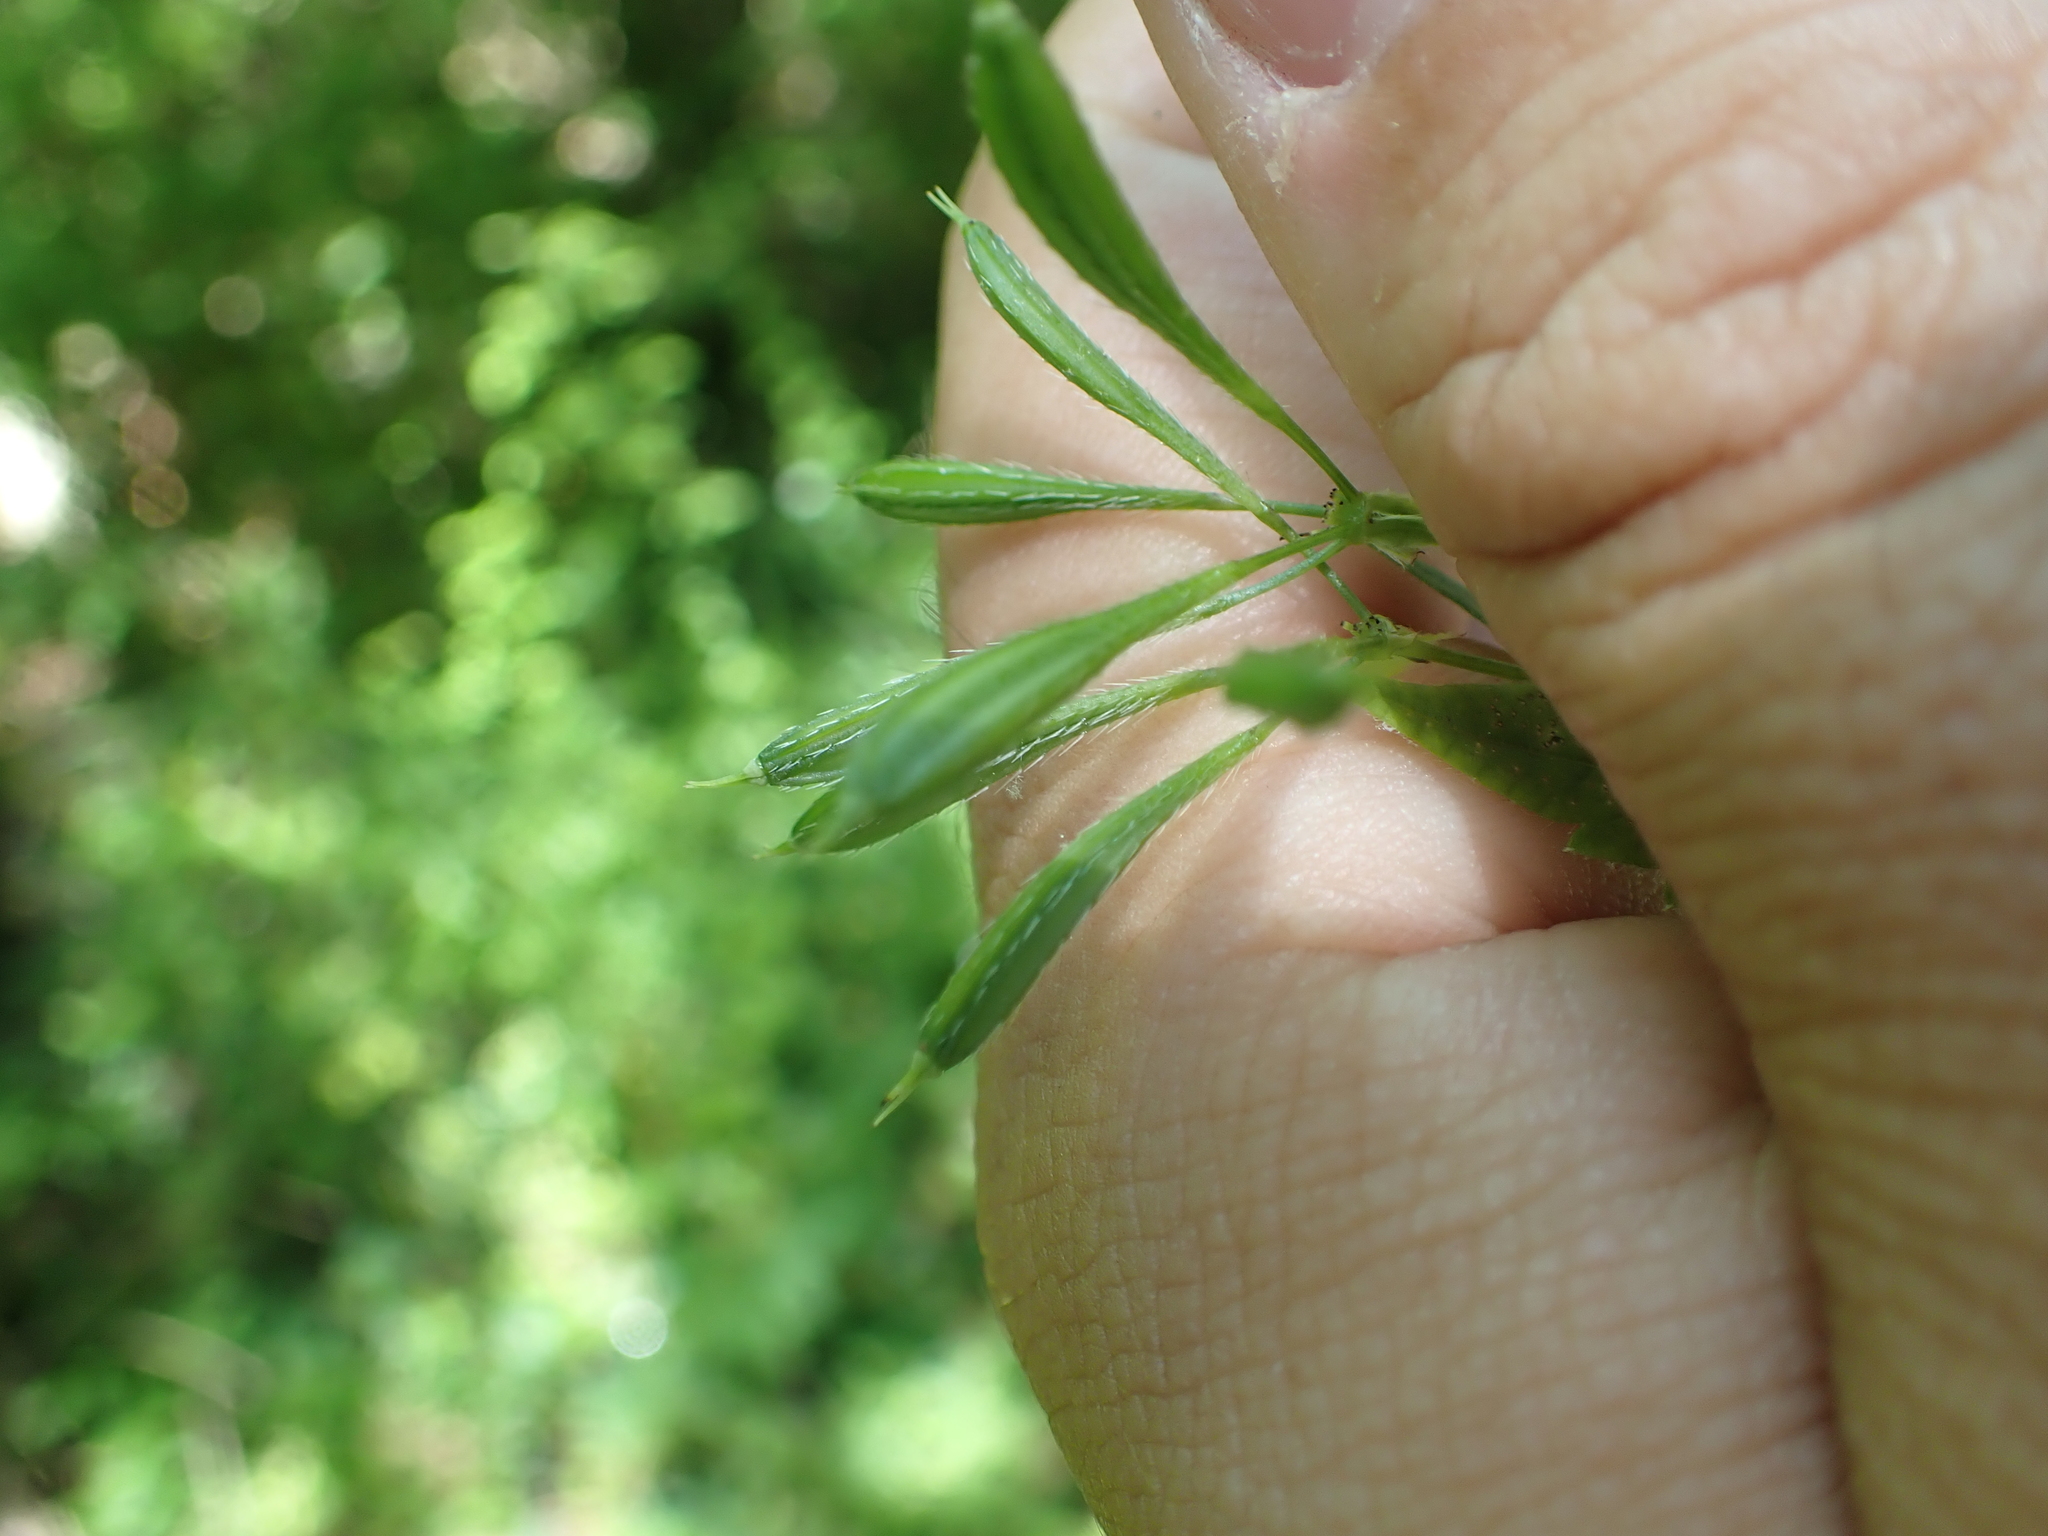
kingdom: Plantae
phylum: Tracheophyta
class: Magnoliopsida
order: Apiales
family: Apiaceae
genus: Osmorhiza
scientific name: Osmorhiza longistylis
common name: Smooth sweet cicely
